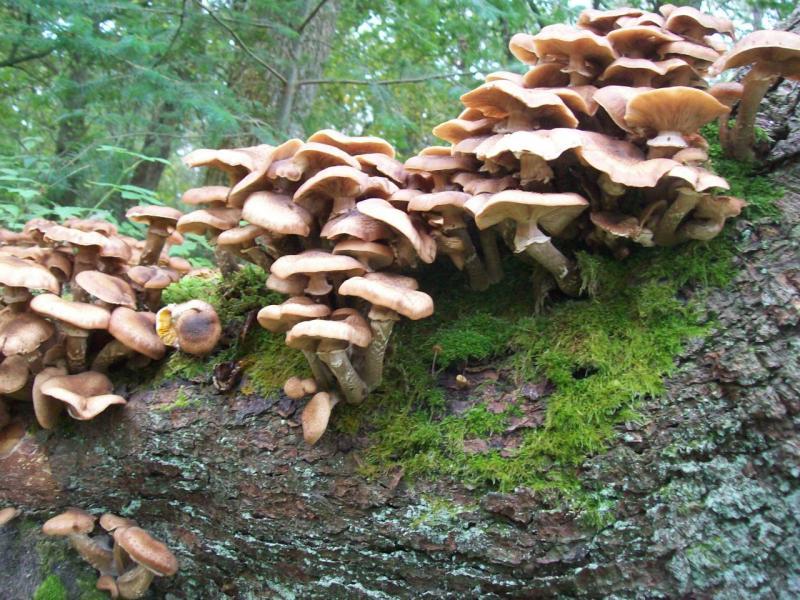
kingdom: Fungi
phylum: Basidiomycota
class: Agaricomycetes
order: Agaricales
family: Physalacriaceae
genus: Armillaria
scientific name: Armillaria ostoyae
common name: Dark honey fungus
